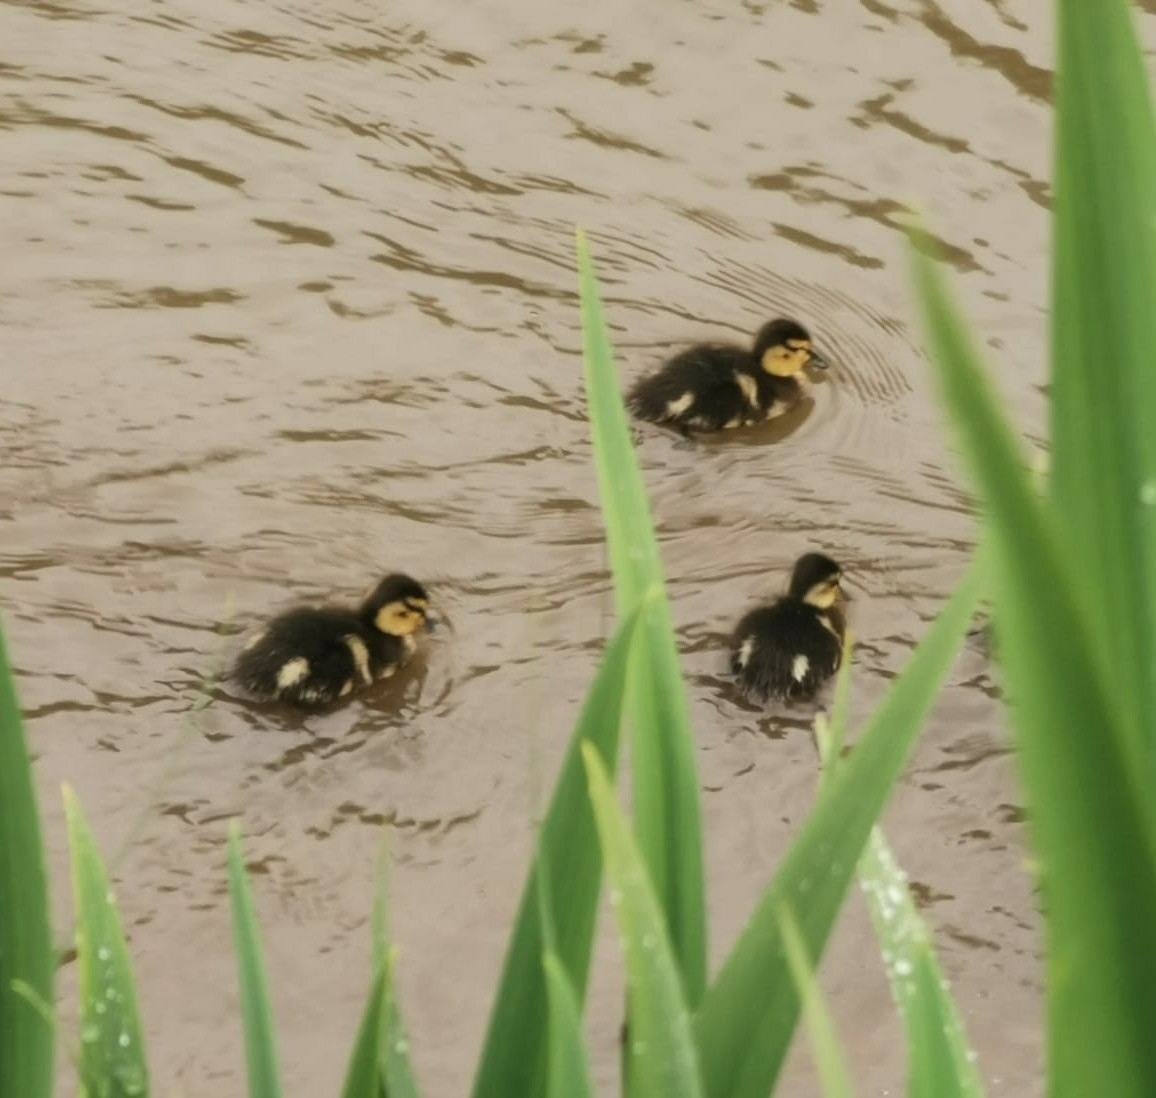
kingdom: Animalia
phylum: Chordata
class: Aves
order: Anseriformes
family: Anatidae
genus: Anas
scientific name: Anas platyrhynchos
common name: Mallard
